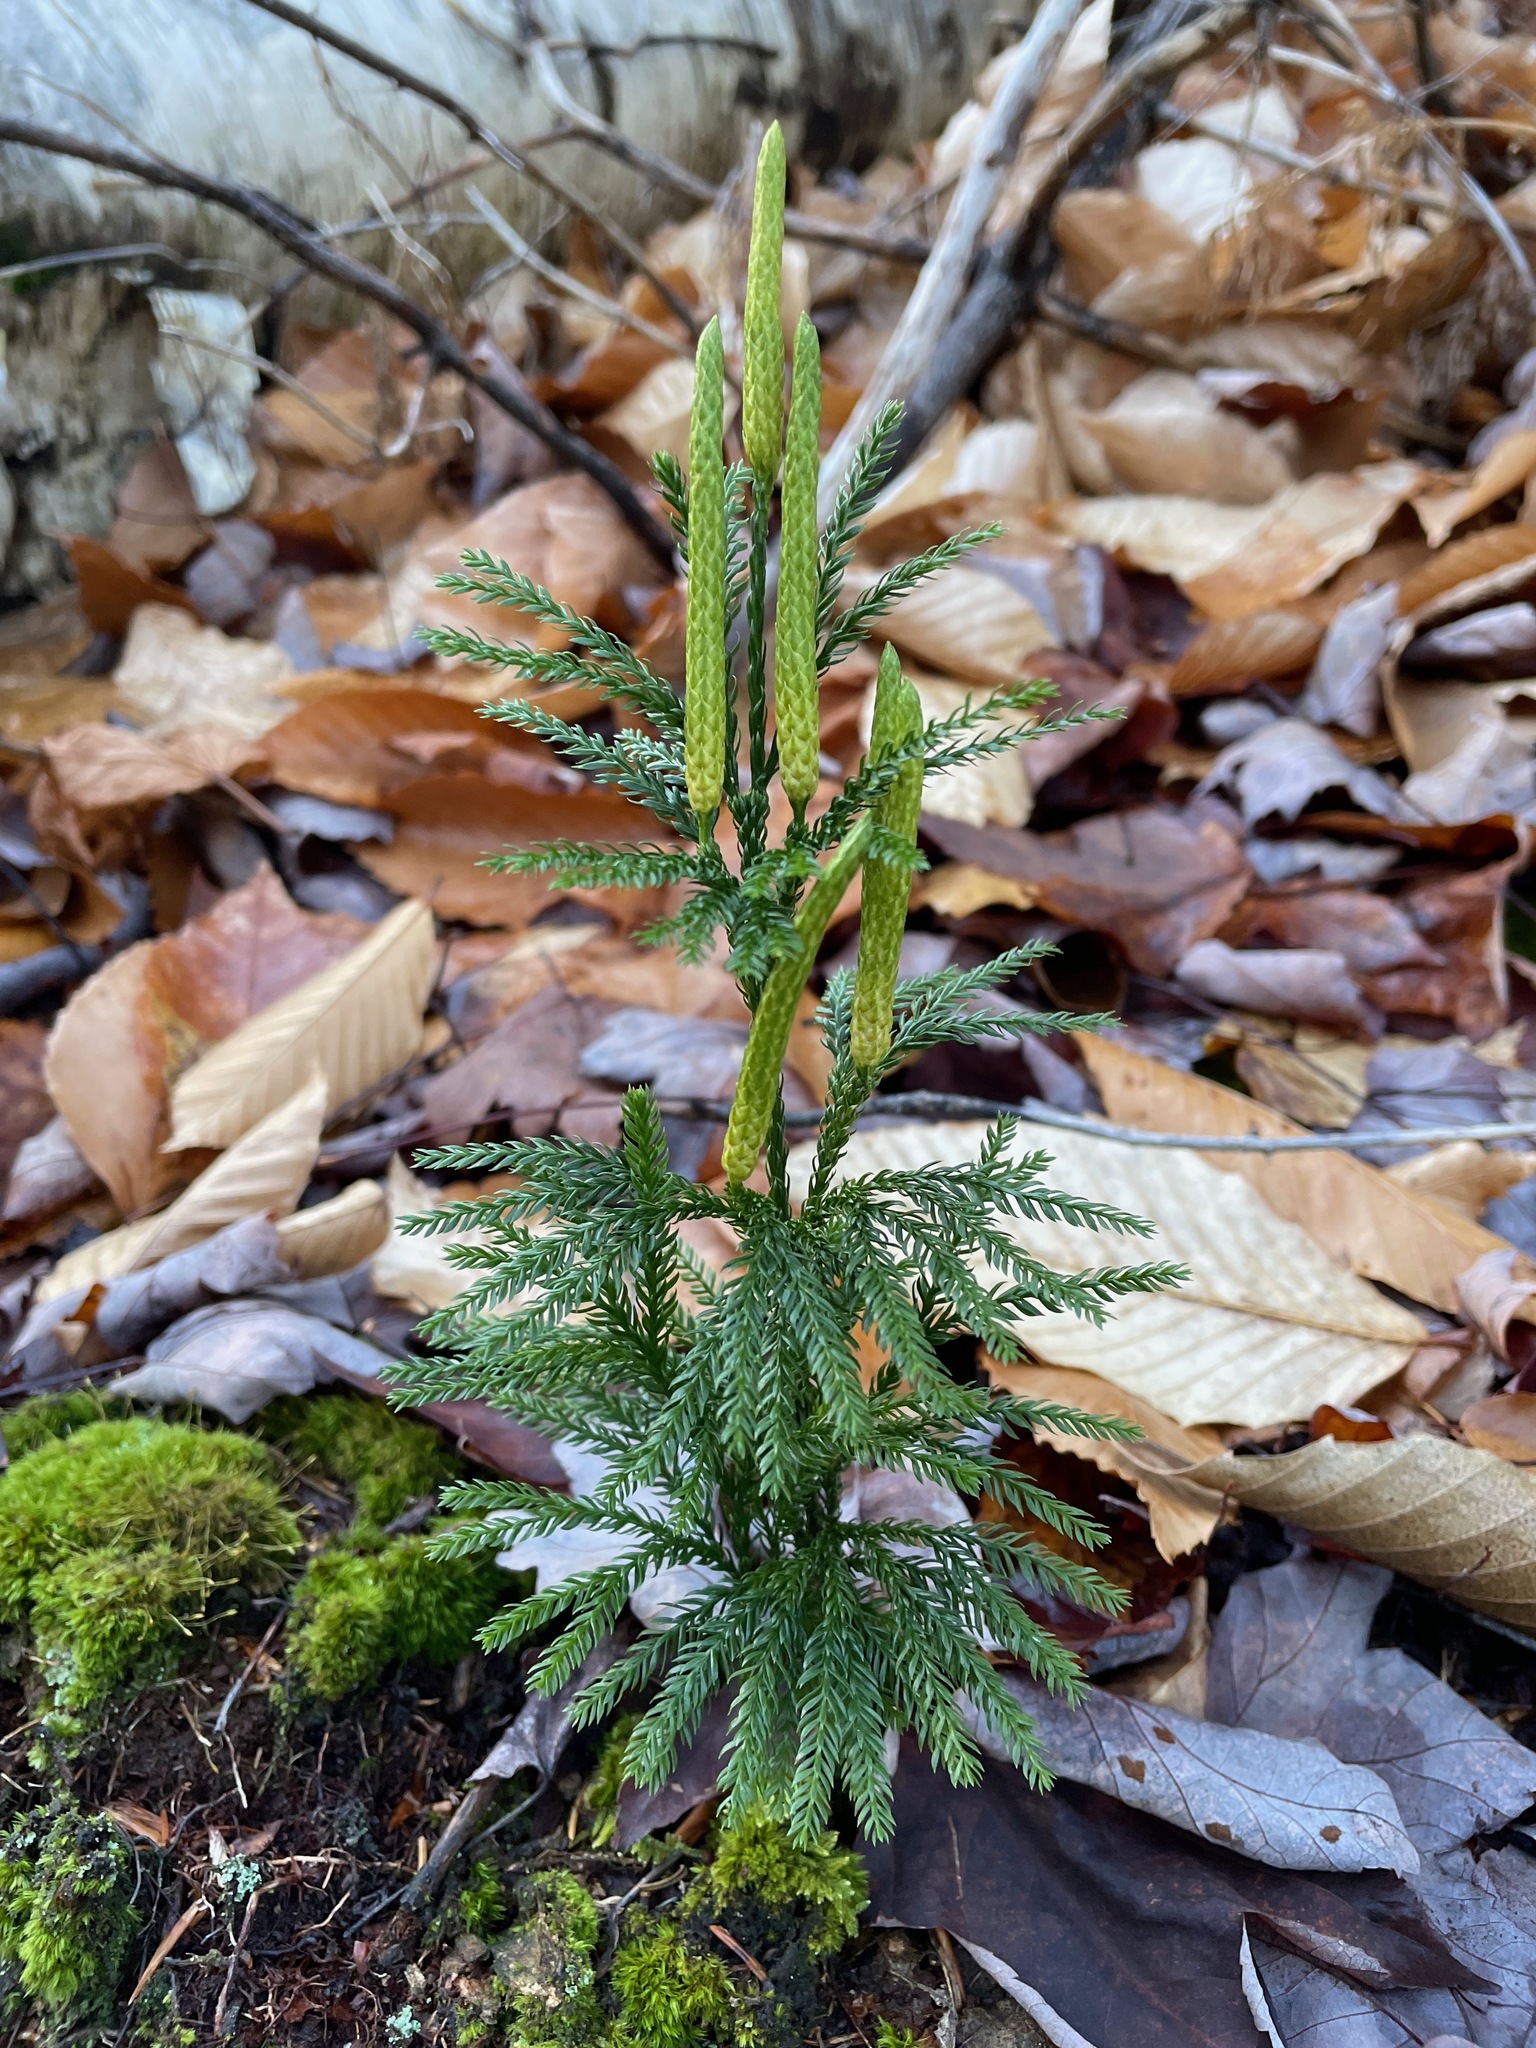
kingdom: Plantae
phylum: Tracheophyta
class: Lycopodiopsida
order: Lycopodiales
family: Lycopodiaceae
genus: Dendrolycopodium
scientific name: Dendrolycopodium obscurum
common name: Common ground-pine
